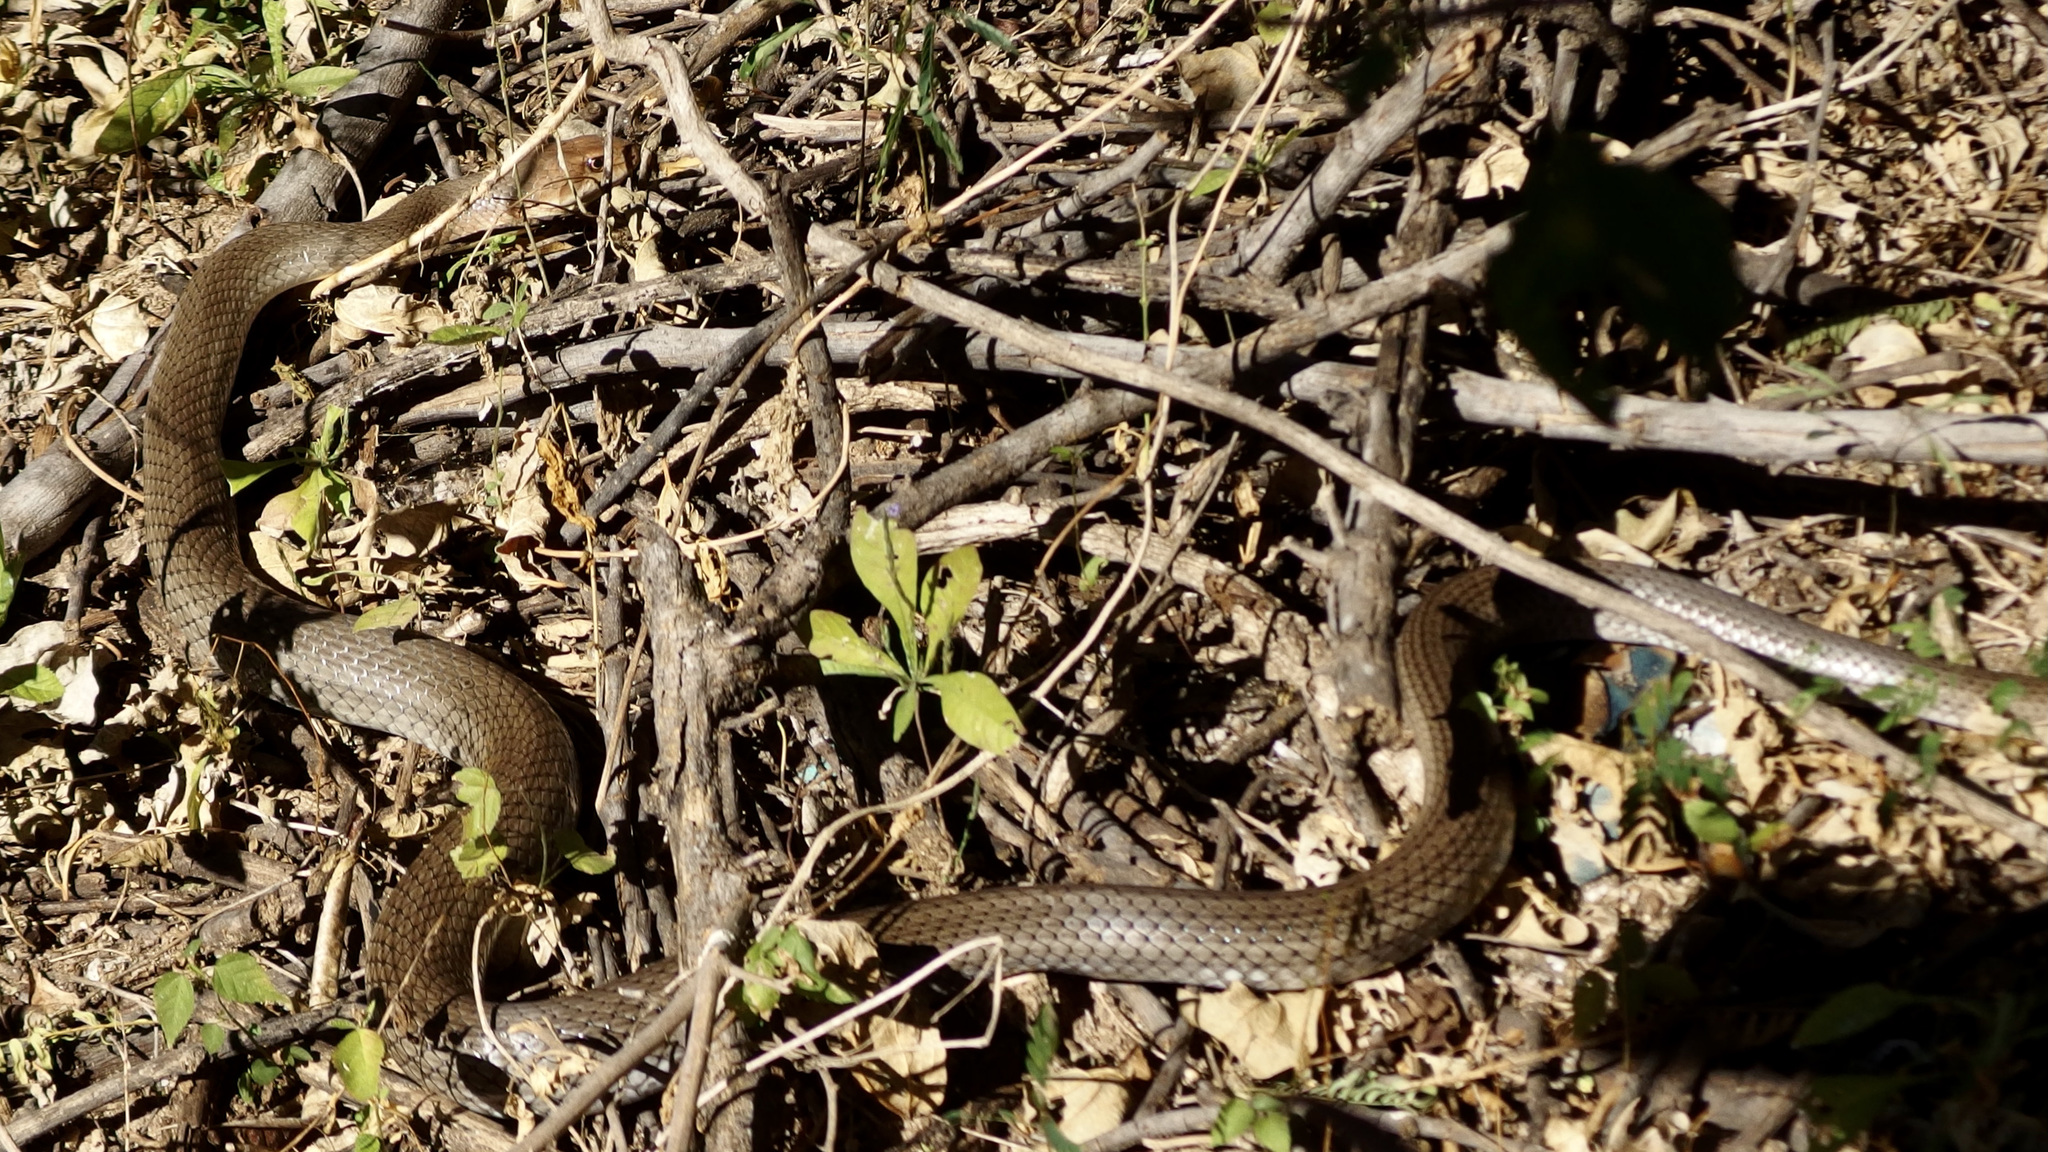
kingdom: Animalia
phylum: Chordata
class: Squamata
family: Colubridae
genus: Masticophis
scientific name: Masticophis mentovarius
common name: Neotropical whip snake
